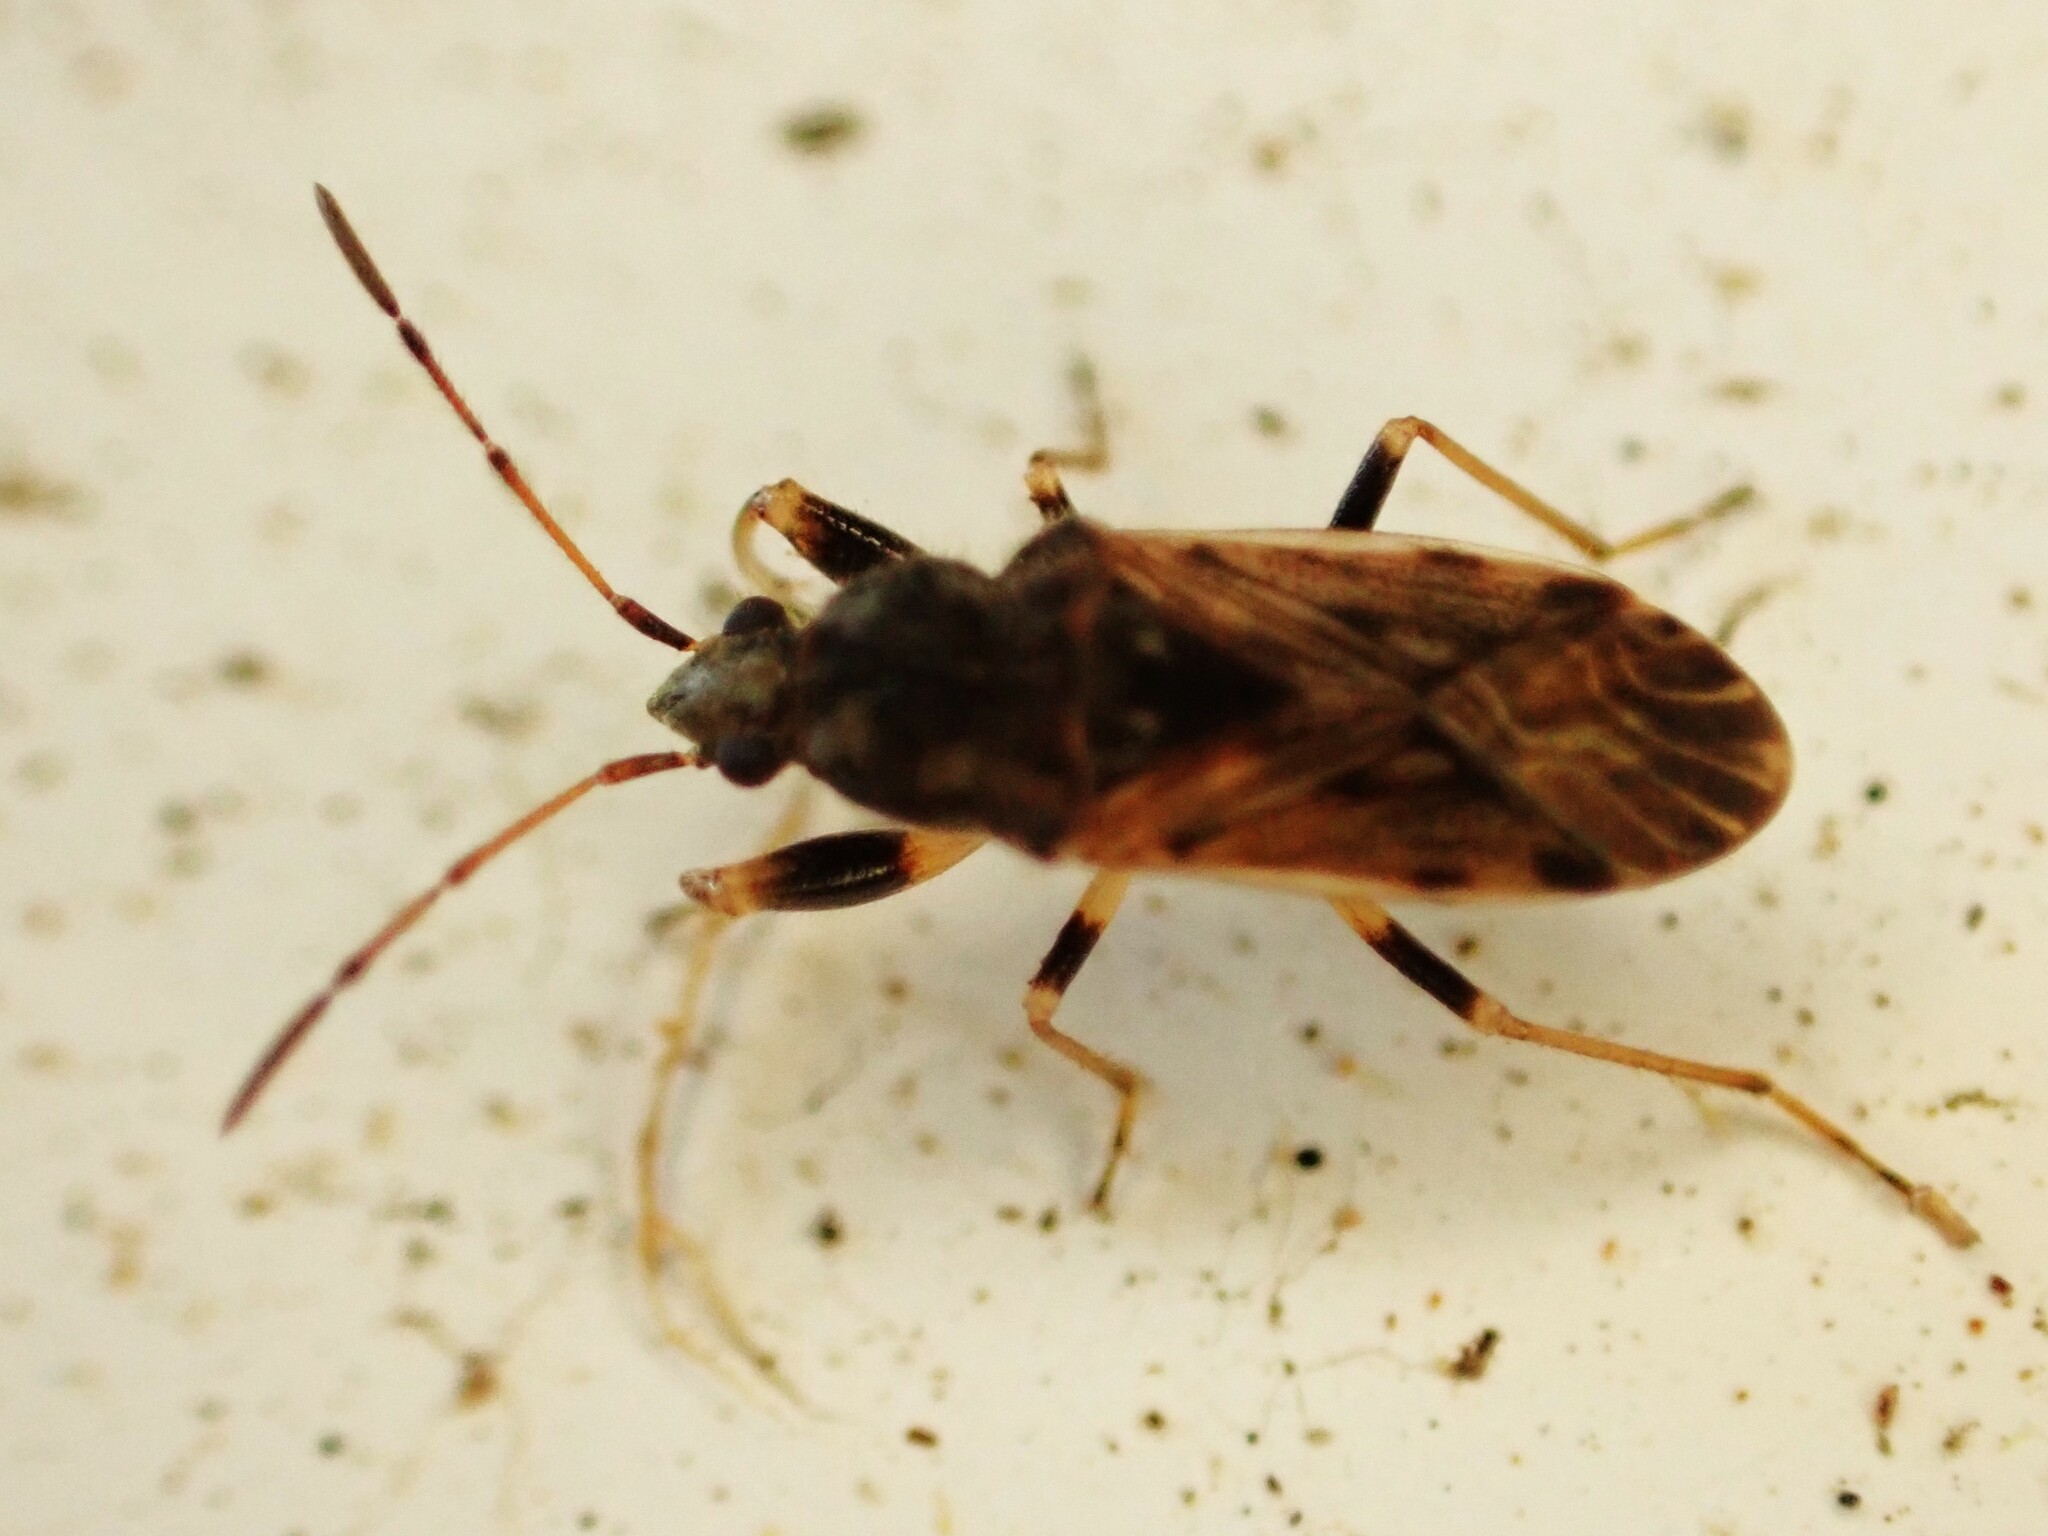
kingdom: Animalia
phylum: Arthropoda
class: Insecta
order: Hemiptera
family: Rhyparochromidae
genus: Remaudiereana
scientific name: Remaudiereana nigriceps
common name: Seed bug
